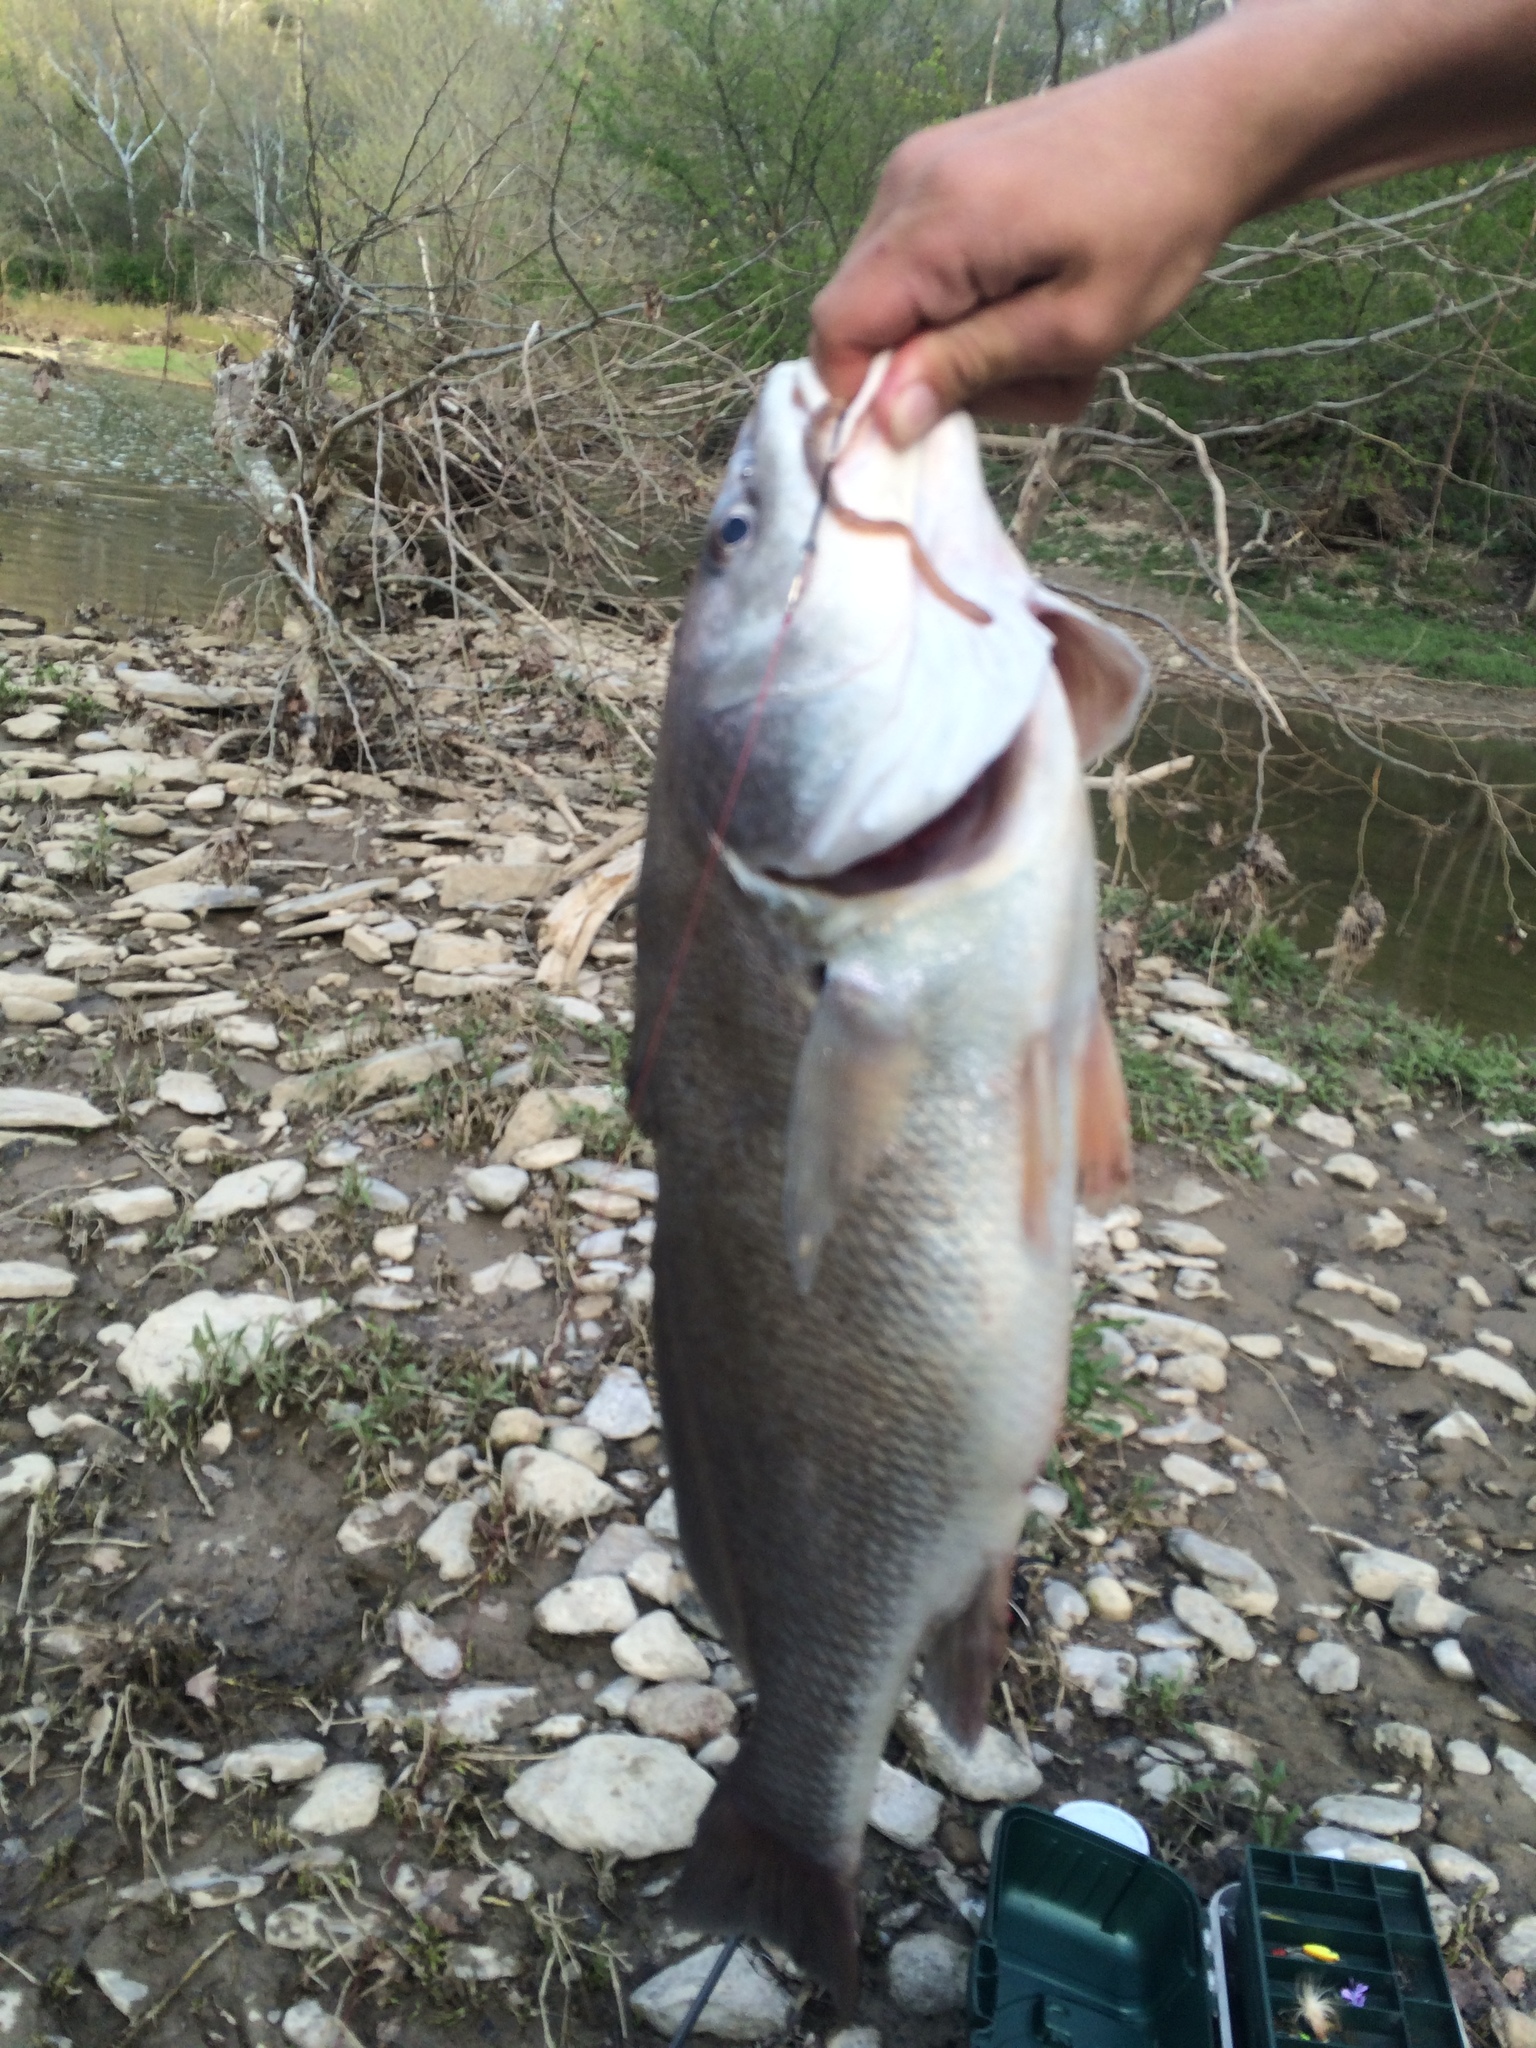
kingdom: Animalia
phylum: Chordata
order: Perciformes
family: Sciaenidae
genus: Aplodinotus
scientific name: Aplodinotus grunniens
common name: Freshwater drum
